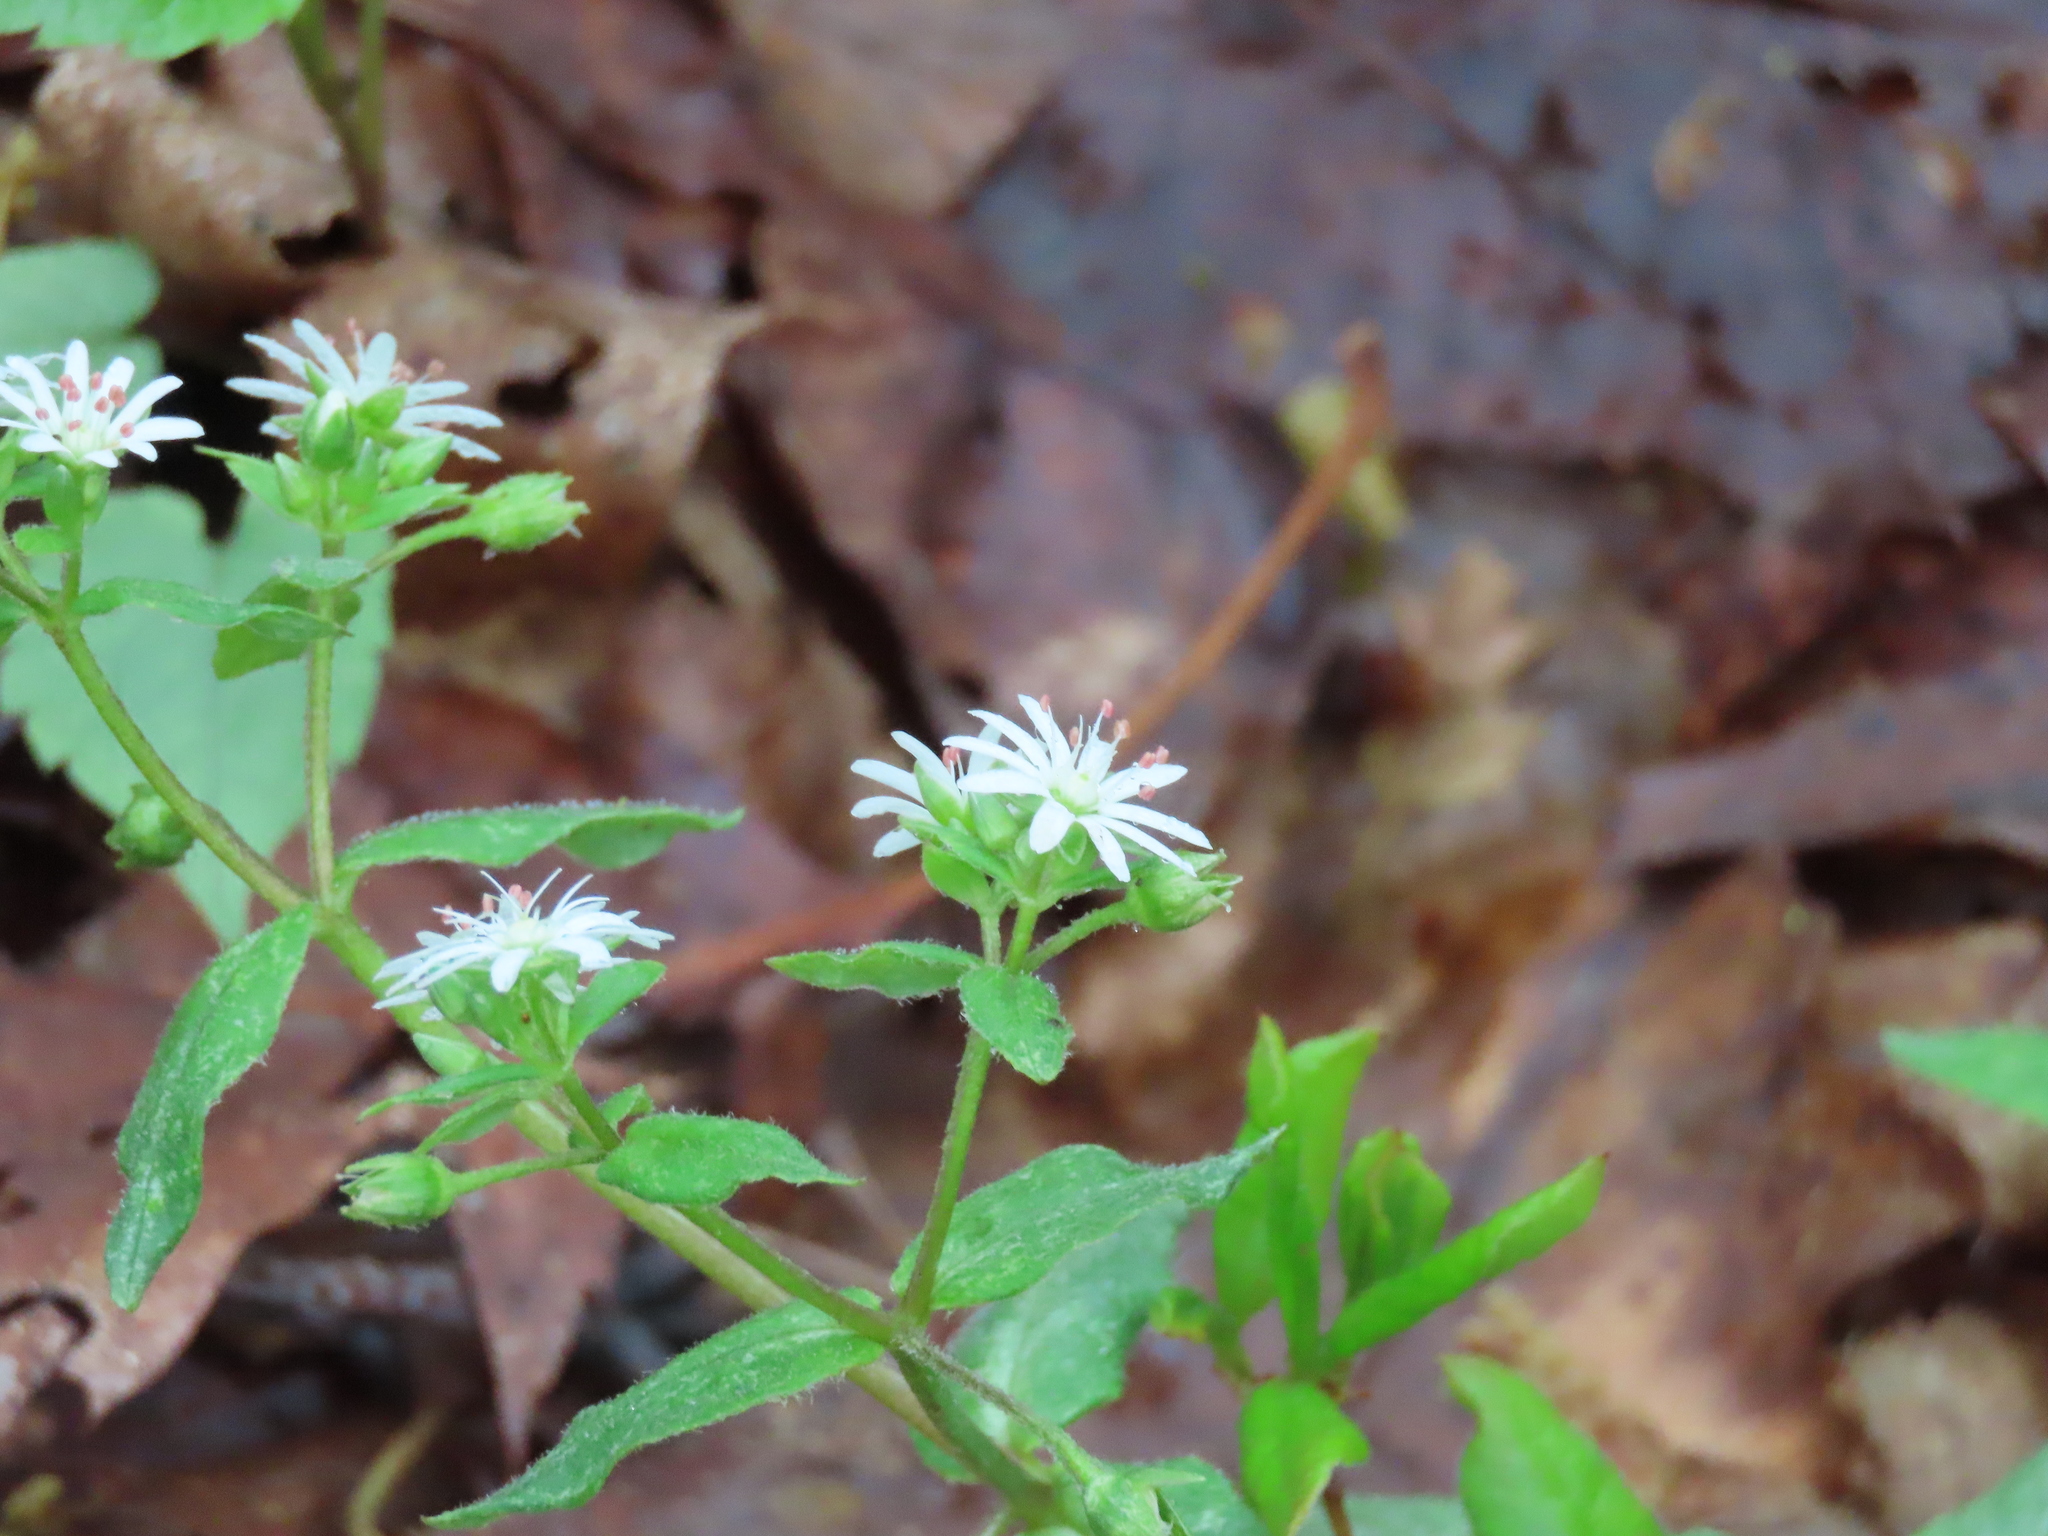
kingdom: Plantae
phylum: Tracheophyta
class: Magnoliopsida
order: Caryophyllales
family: Caryophyllaceae
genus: Stellaria
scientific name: Stellaria pubera
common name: Star chickweed
